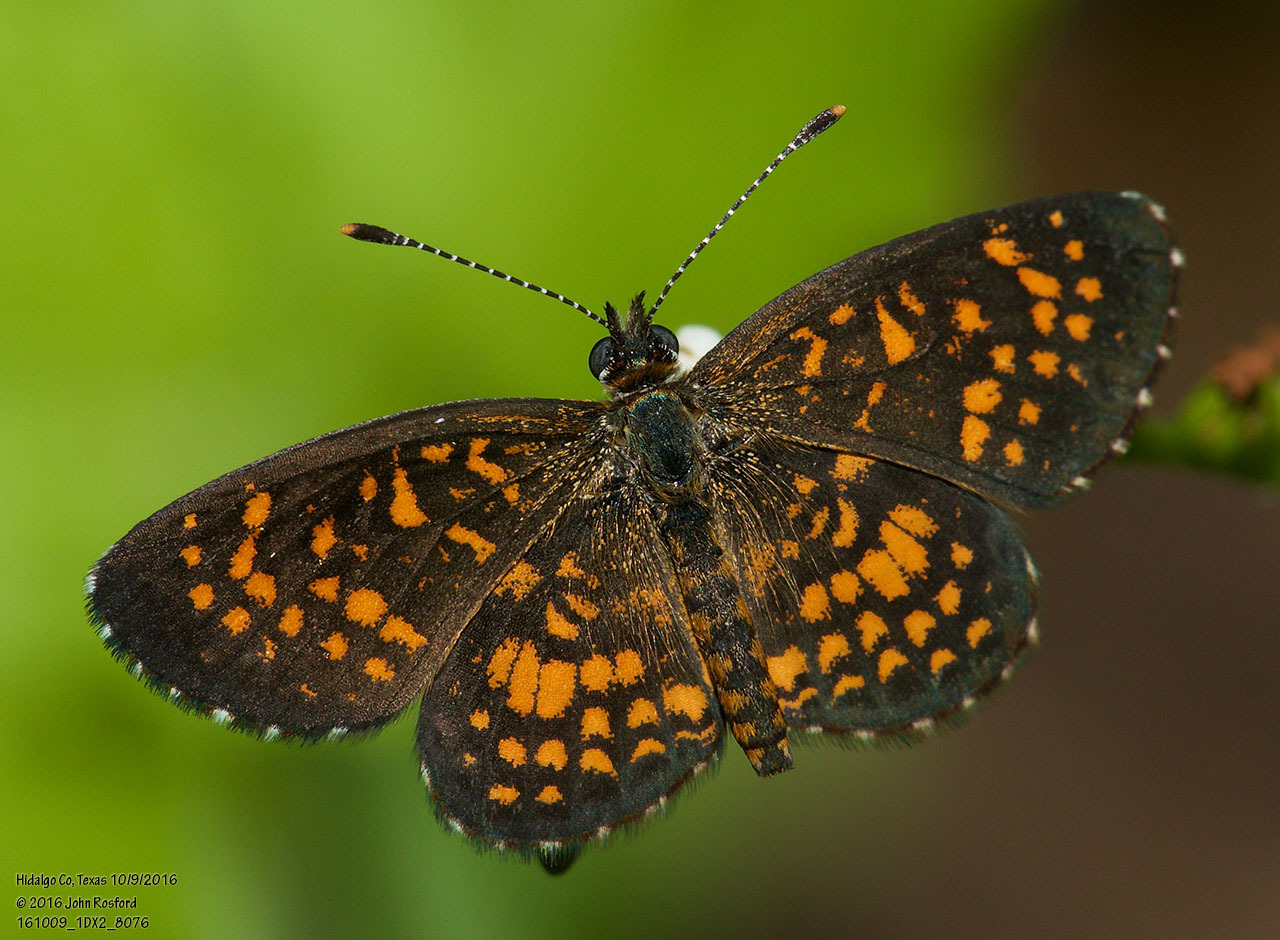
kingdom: Animalia
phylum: Arthropoda
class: Insecta
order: Lepidoptera
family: Nymphalidae
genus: Texola
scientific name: Texola elada
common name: Elada checkerspot
